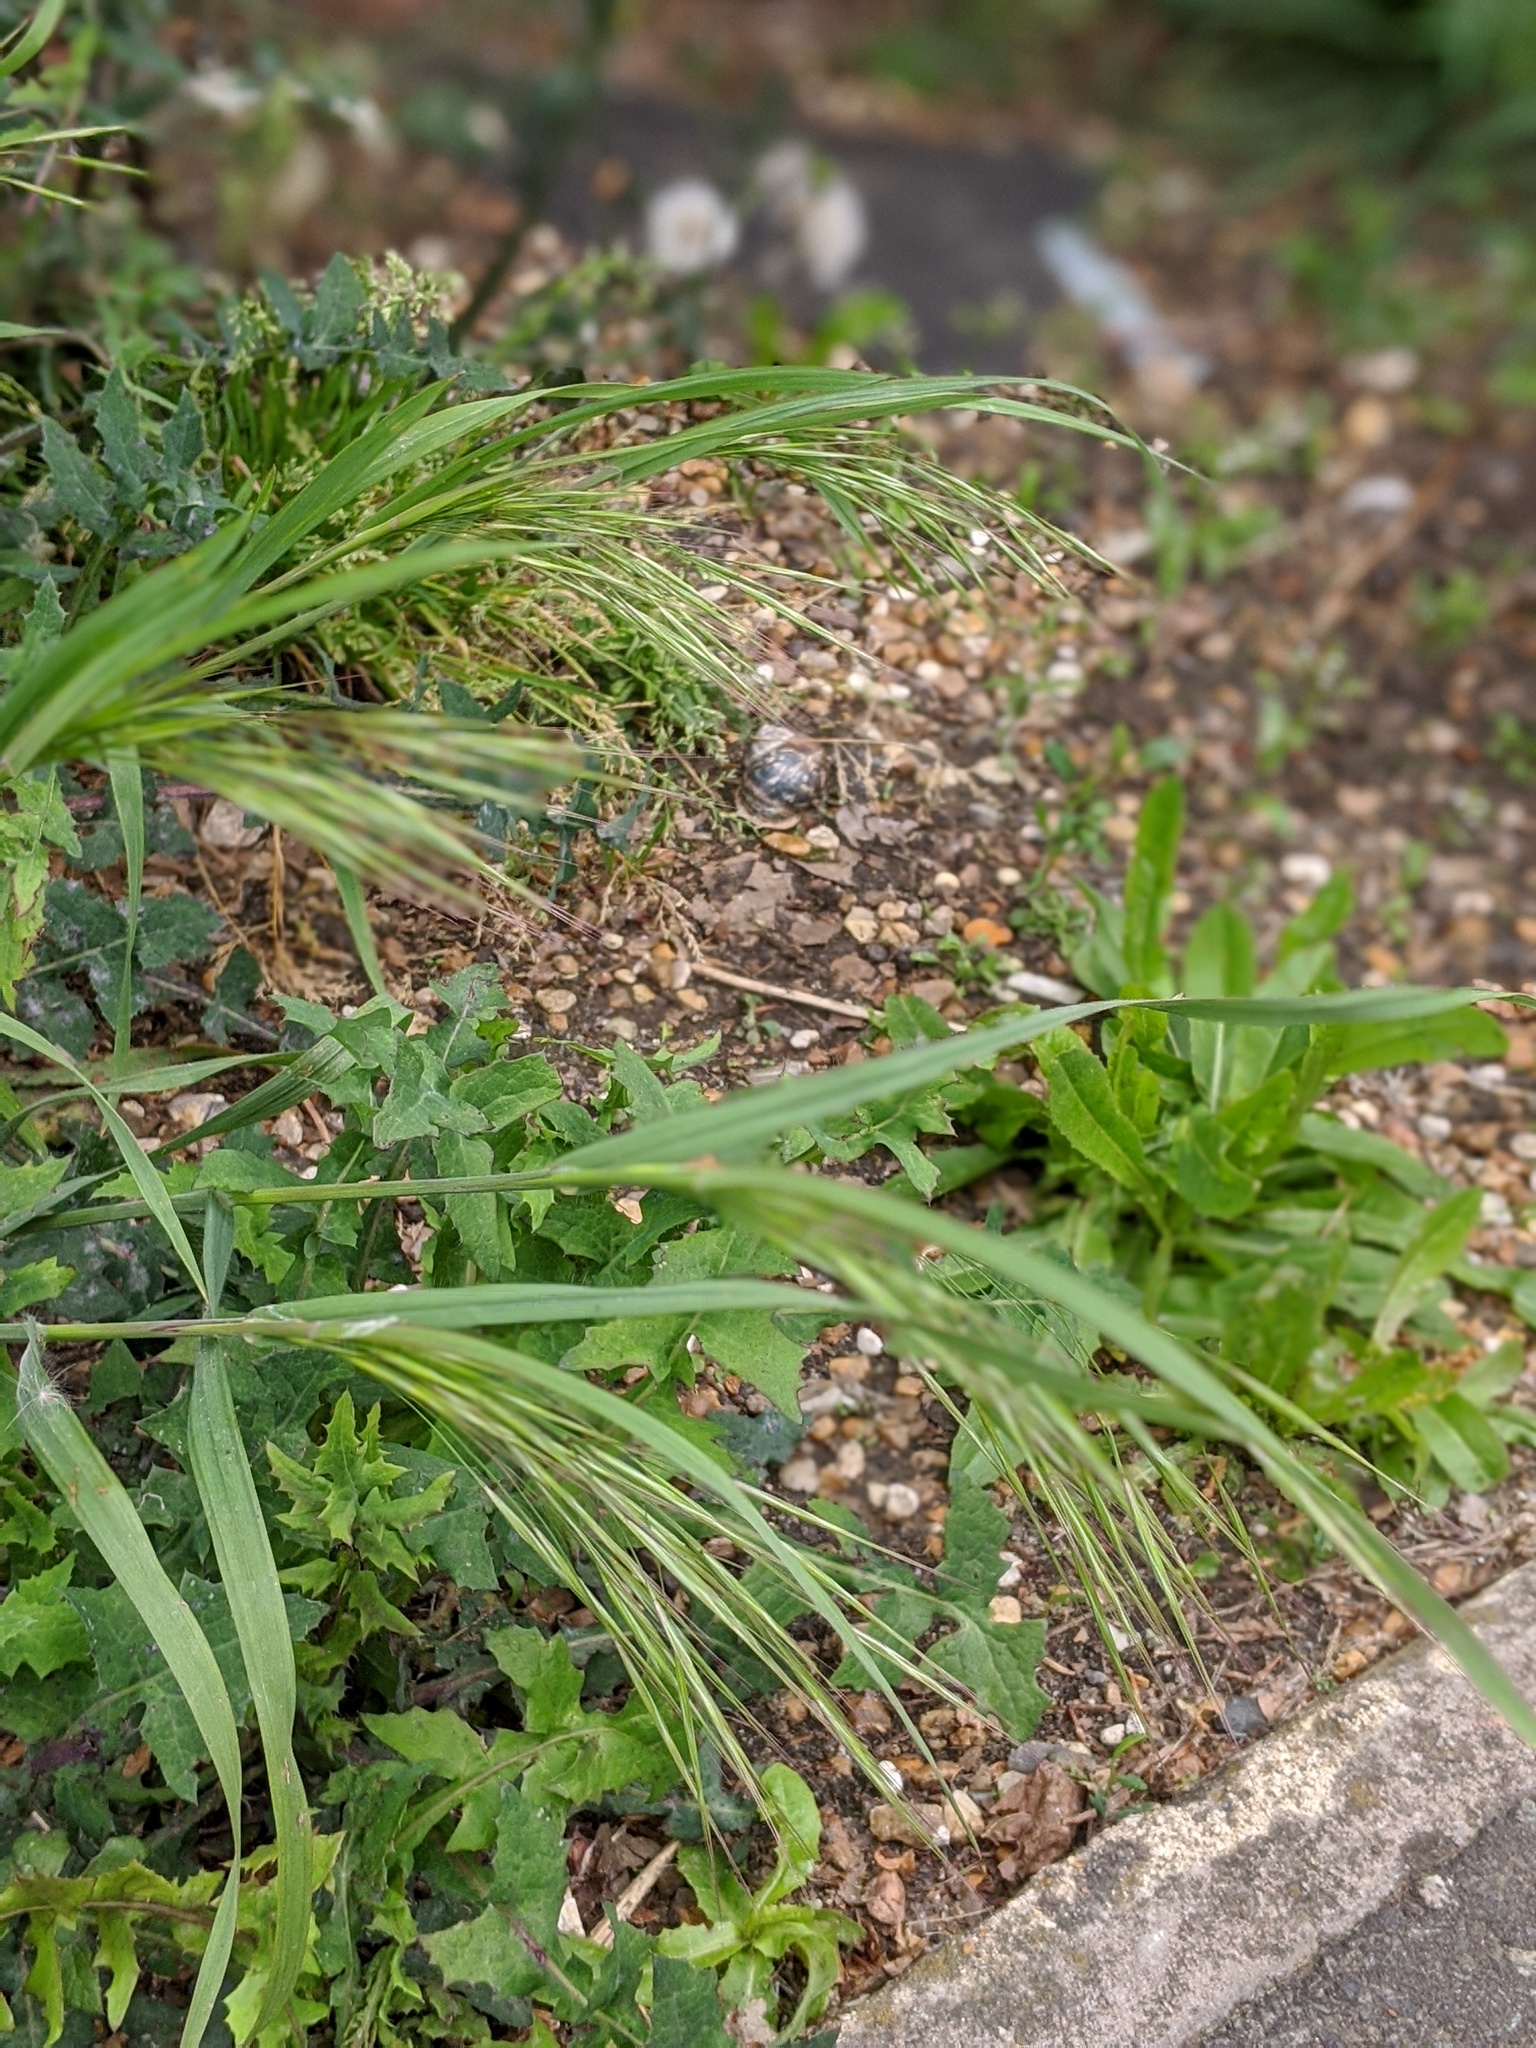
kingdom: Plantae
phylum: Tracheophyta
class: Liliopsida
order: Poales
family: Poaceae
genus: Bromus
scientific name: Bromus sterilis
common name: Poverty brome
